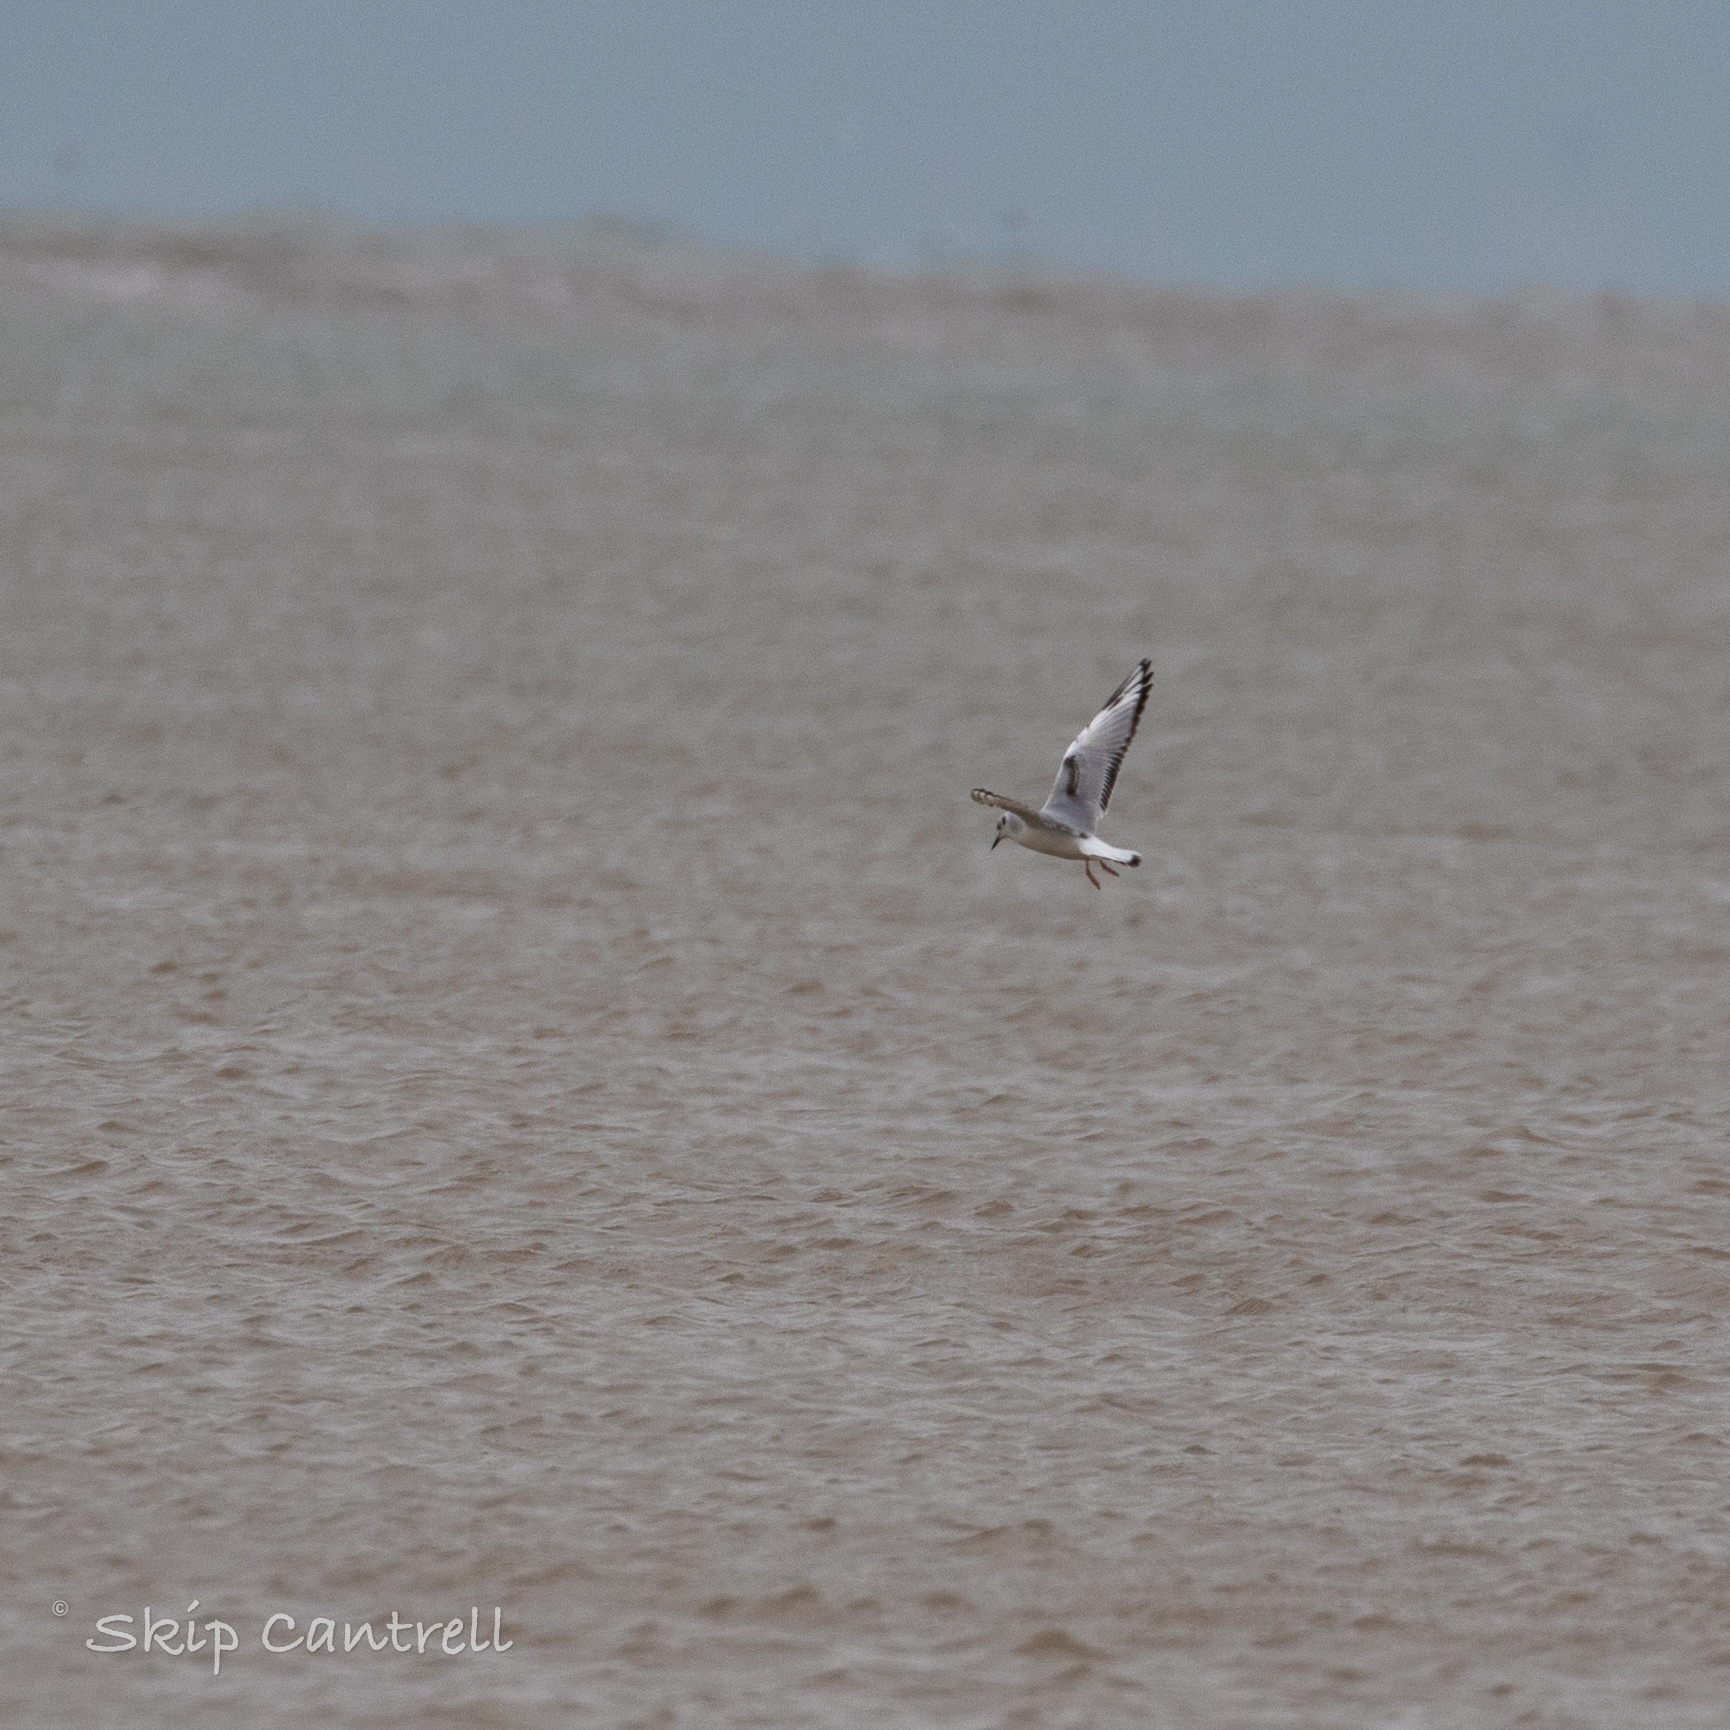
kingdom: Animalia
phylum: Chordata
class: Aves
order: Charadriiformes
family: Laridae
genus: Chroicocephalus
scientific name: Chroicocephalus philadelphia
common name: Bonaparte's gull
